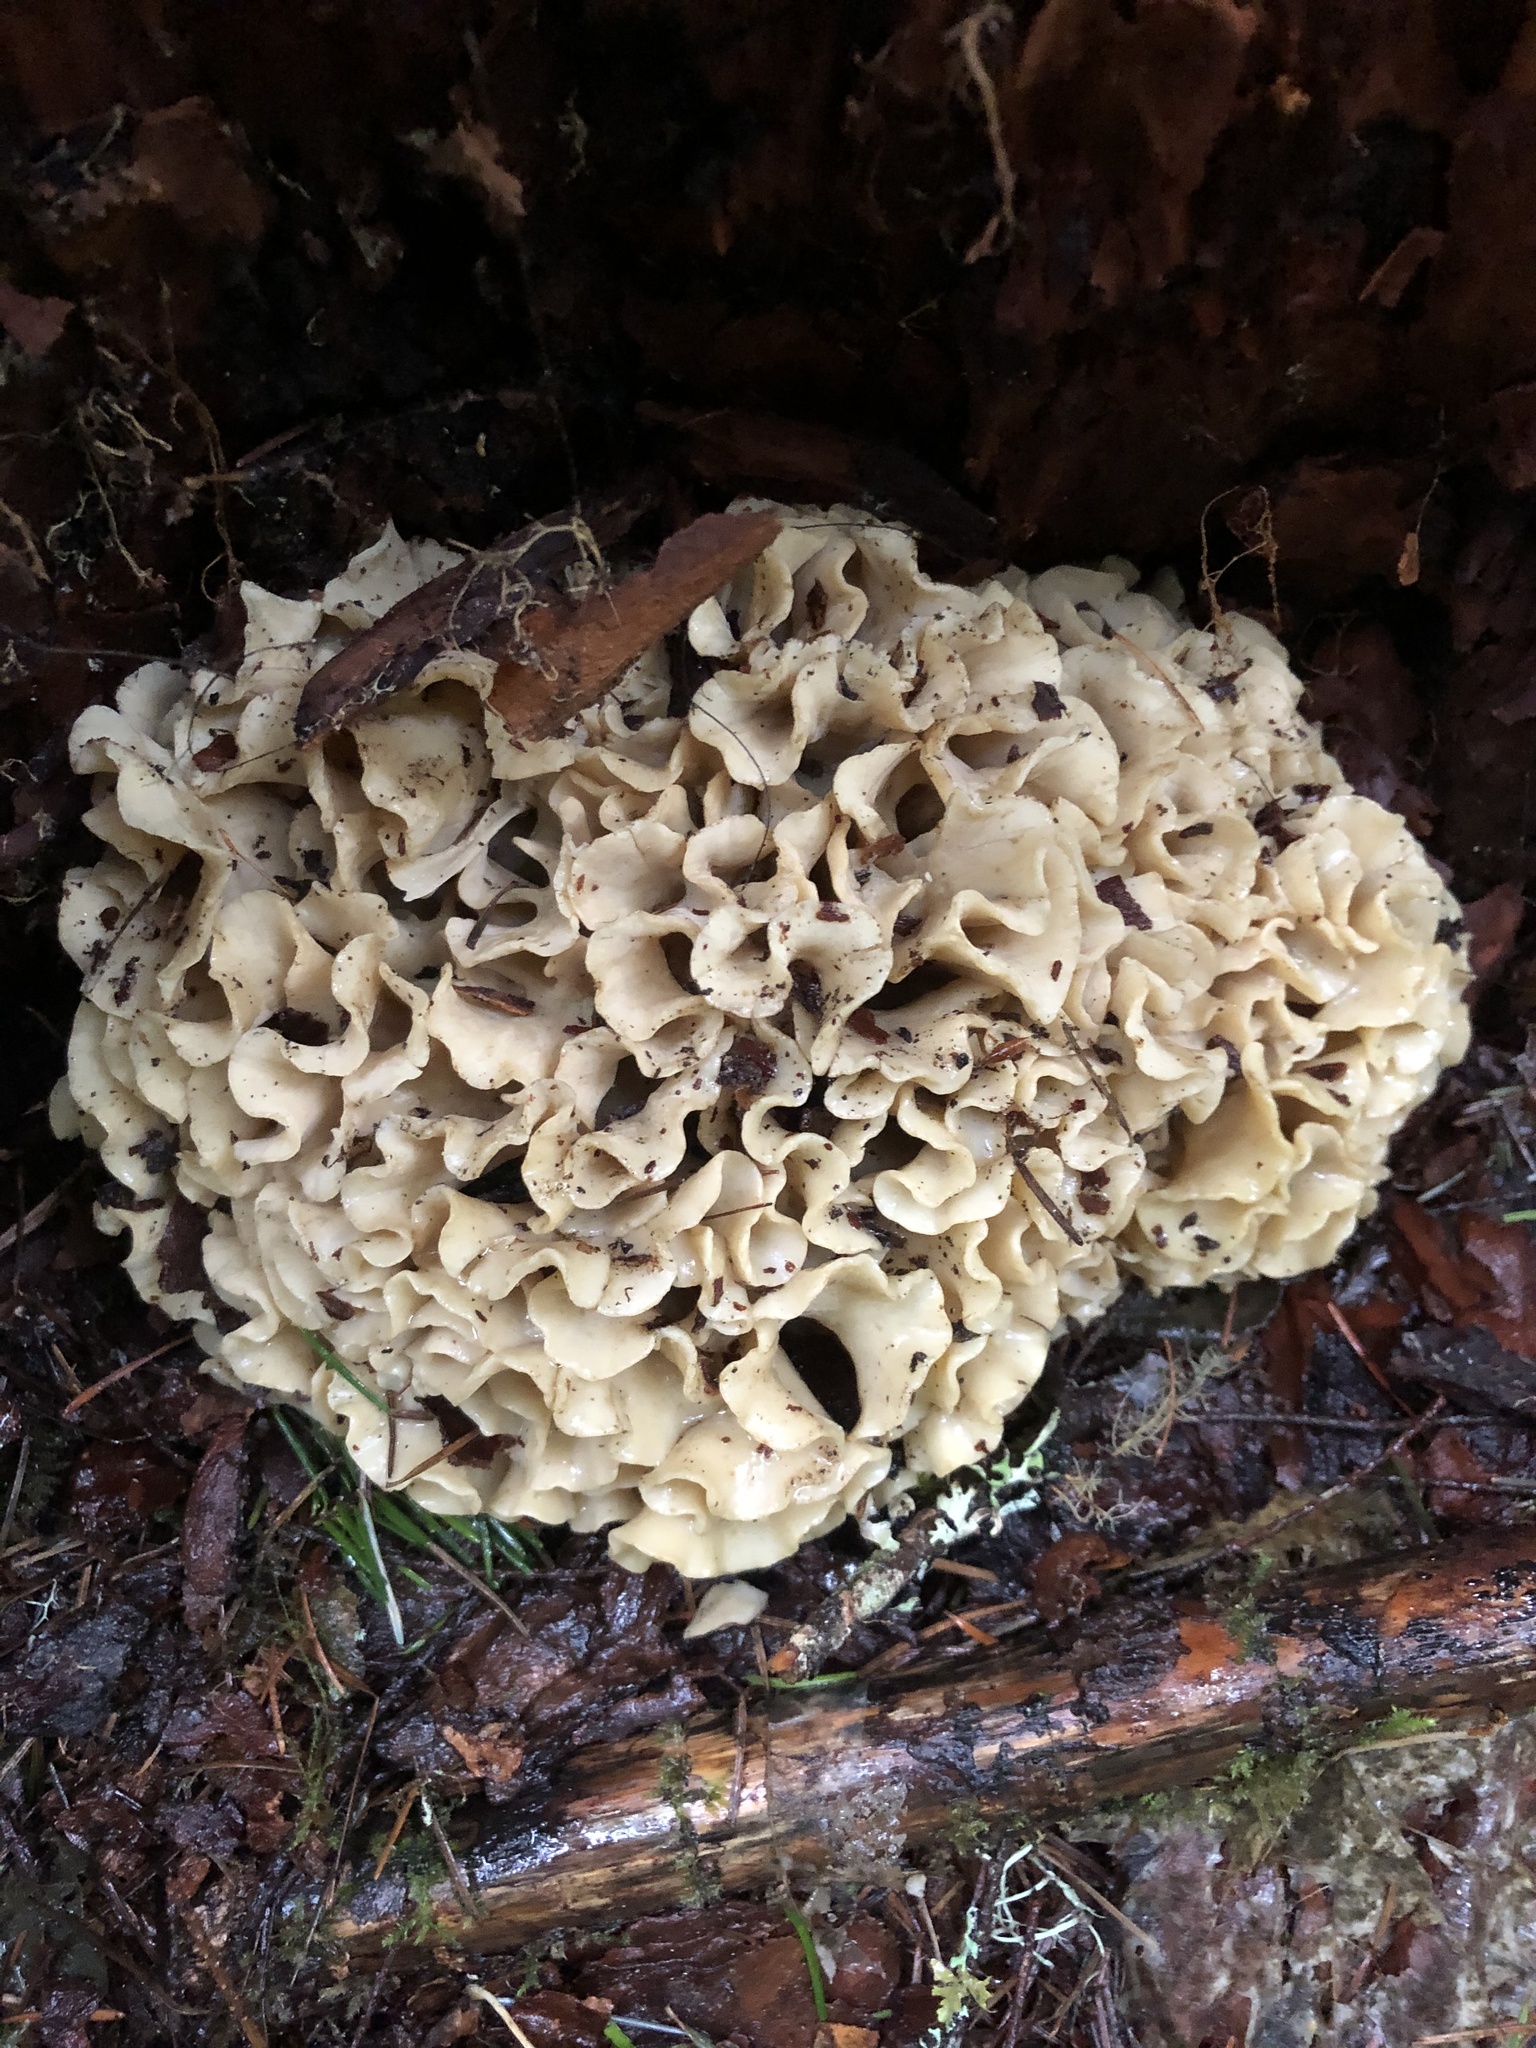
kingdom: Fungi
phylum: Basidiomycota
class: Agaricomycetes
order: Polyporales
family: Sparassidaceae
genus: Sparassis
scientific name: Sparassis radicata
